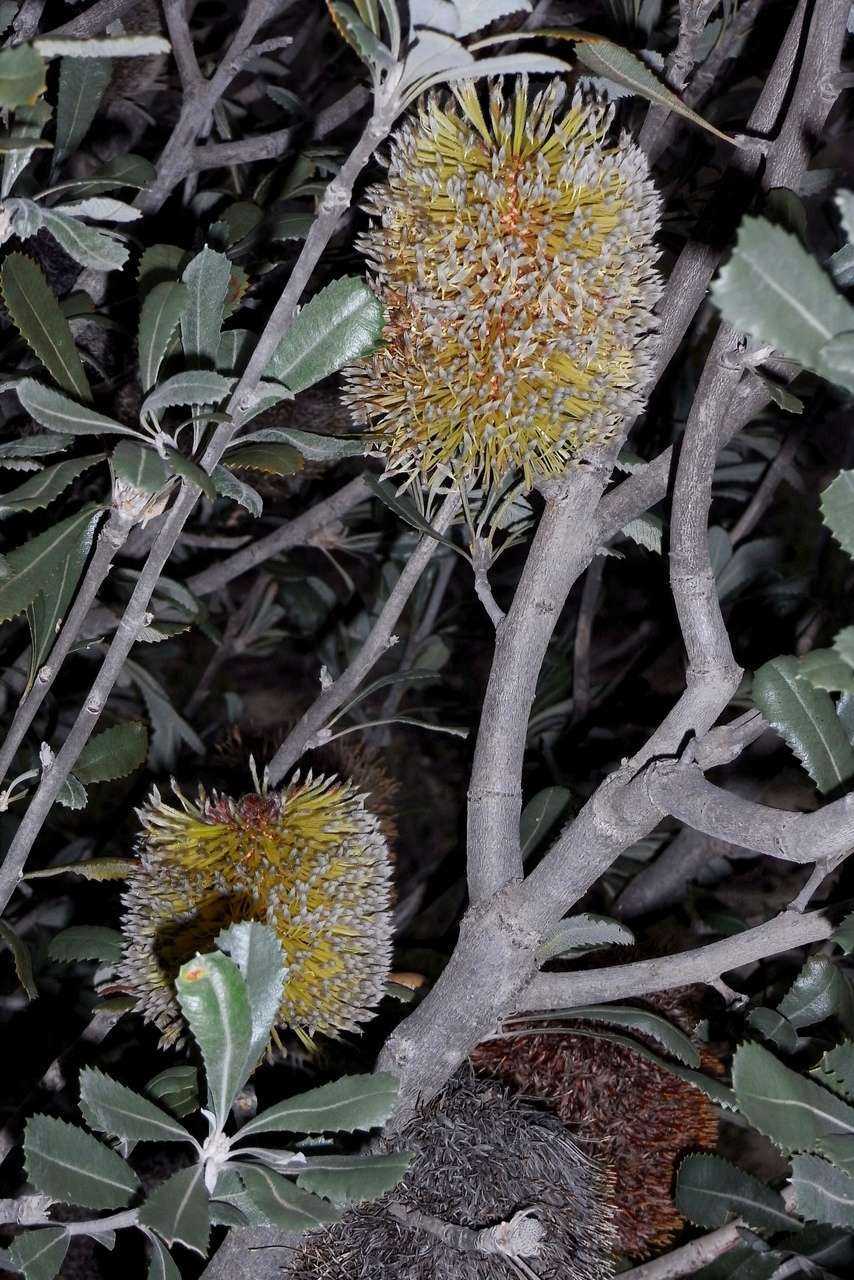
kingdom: Plantae
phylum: Tracheophyta
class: Magnoliopsida
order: Proteales
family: Proteaceae
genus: Banksia
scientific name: Banksia ornata
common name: Desert banksia
